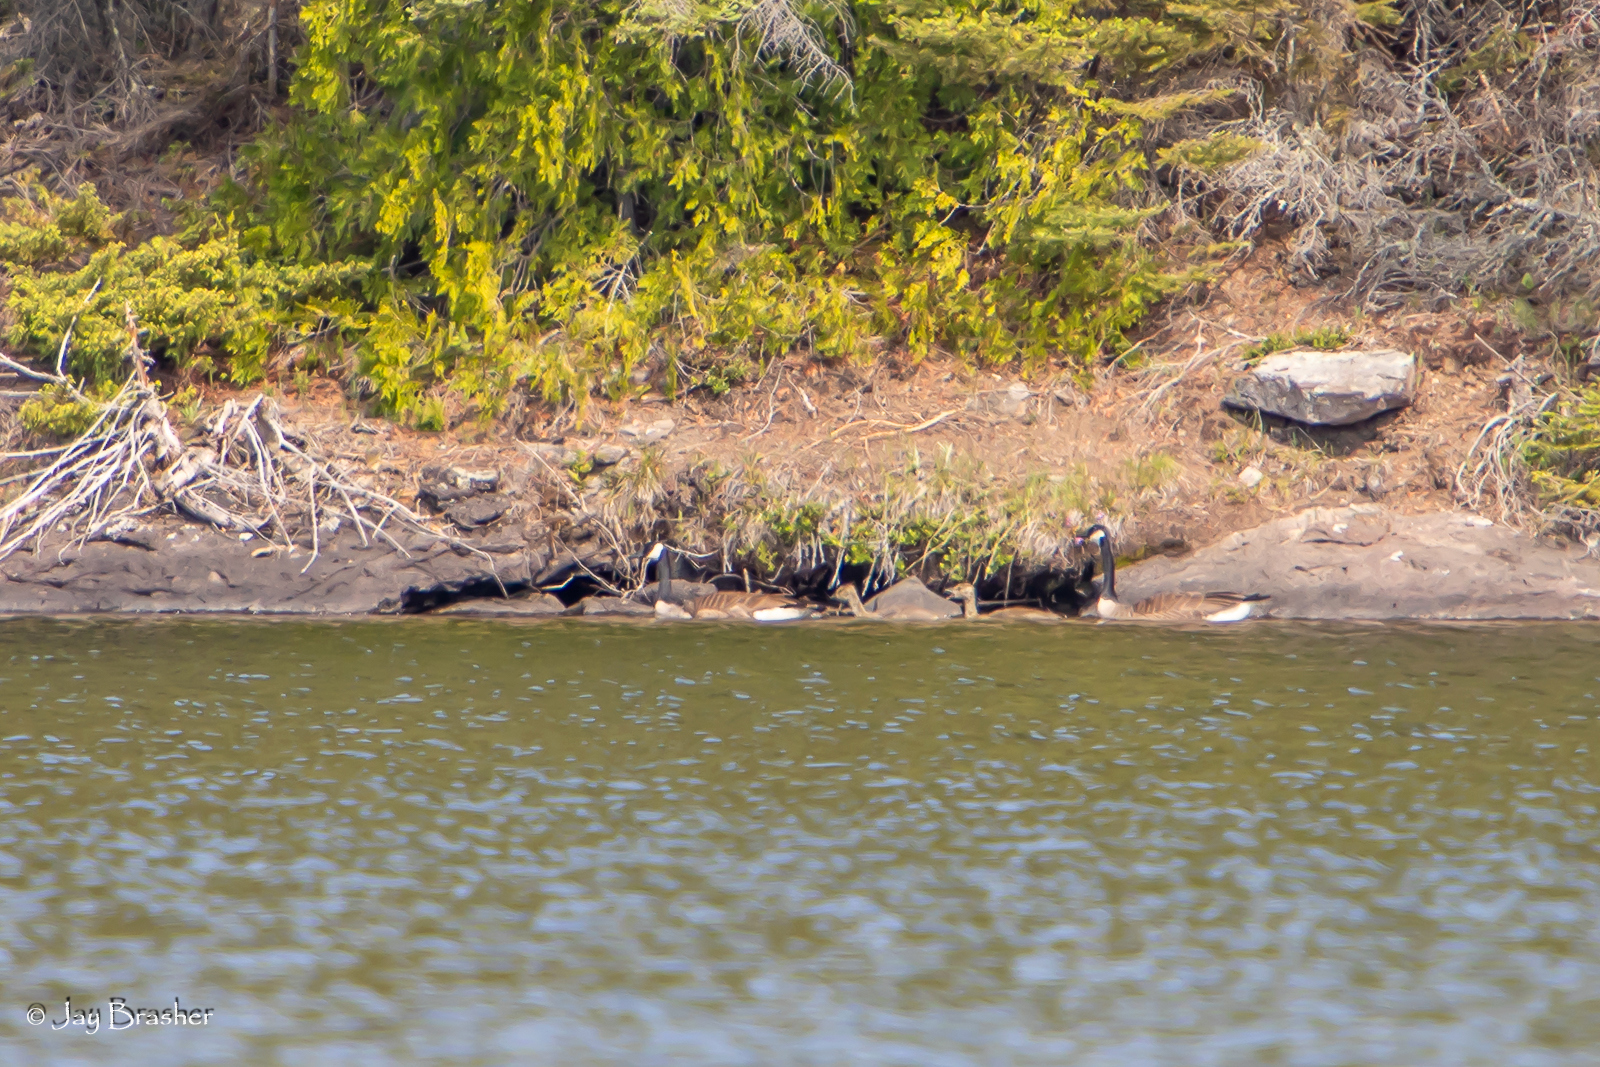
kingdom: Animalia
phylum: Chordata
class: Aves
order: Anseriformes
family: Anatidae
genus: Branta
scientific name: Branta canadensis
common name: Canada goose
